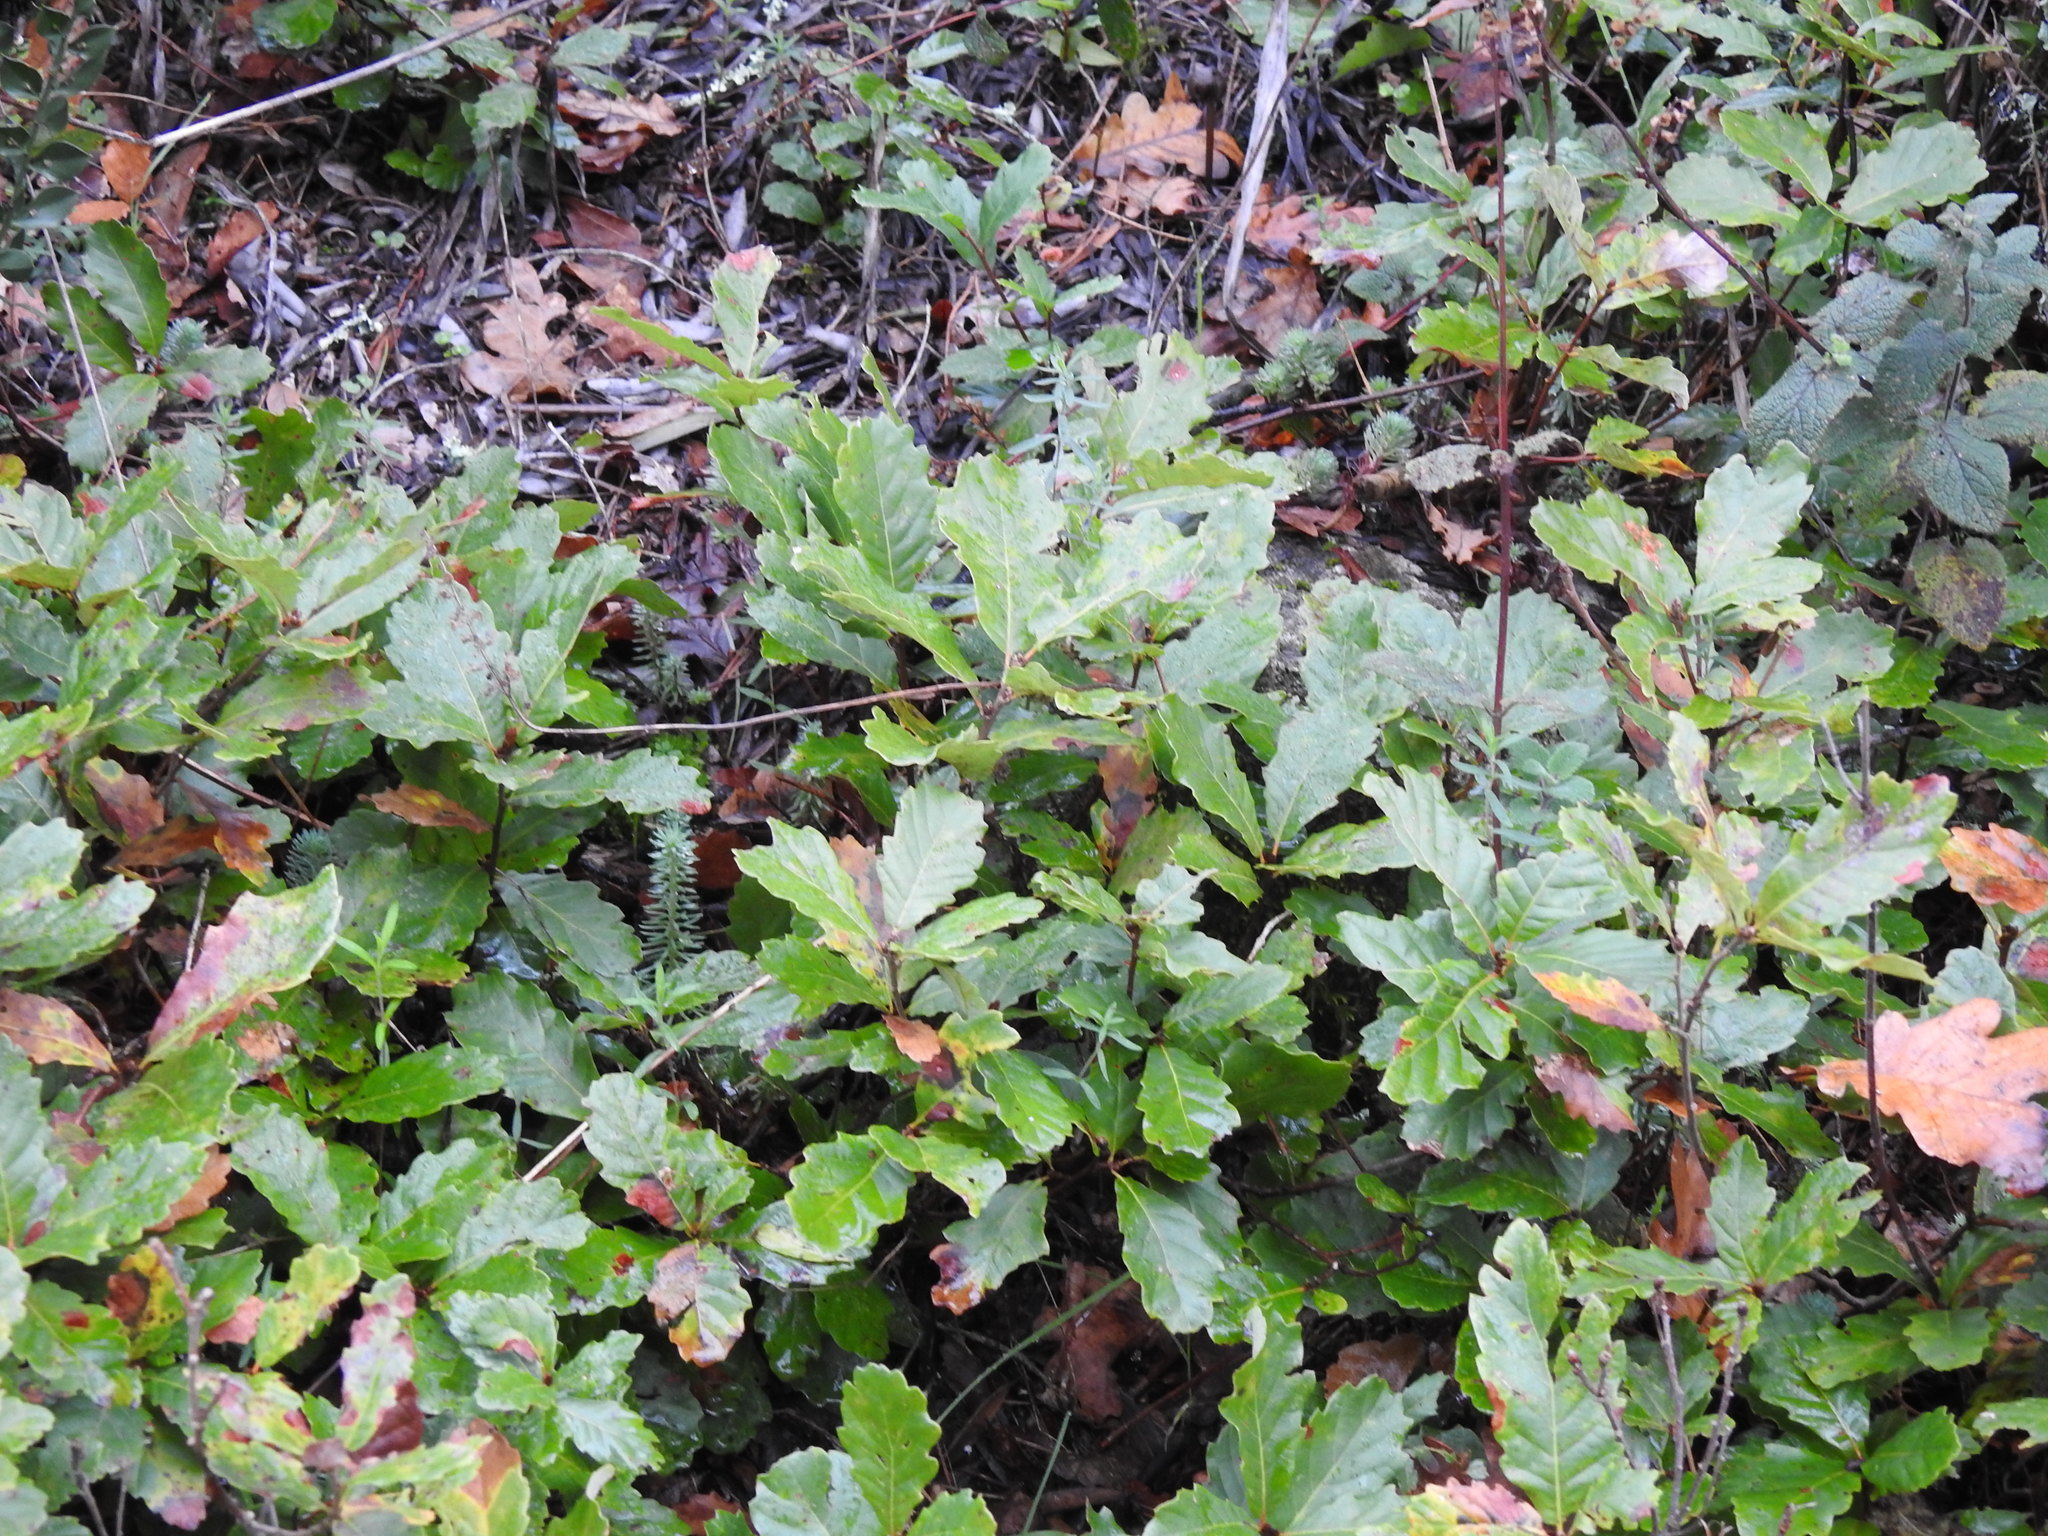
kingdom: Plantae
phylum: Tracheophyta
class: Magnoliopsida
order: Fagales
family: Fagaceae
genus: Quercus
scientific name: Quercus lusitanica
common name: Scrub gall oak
